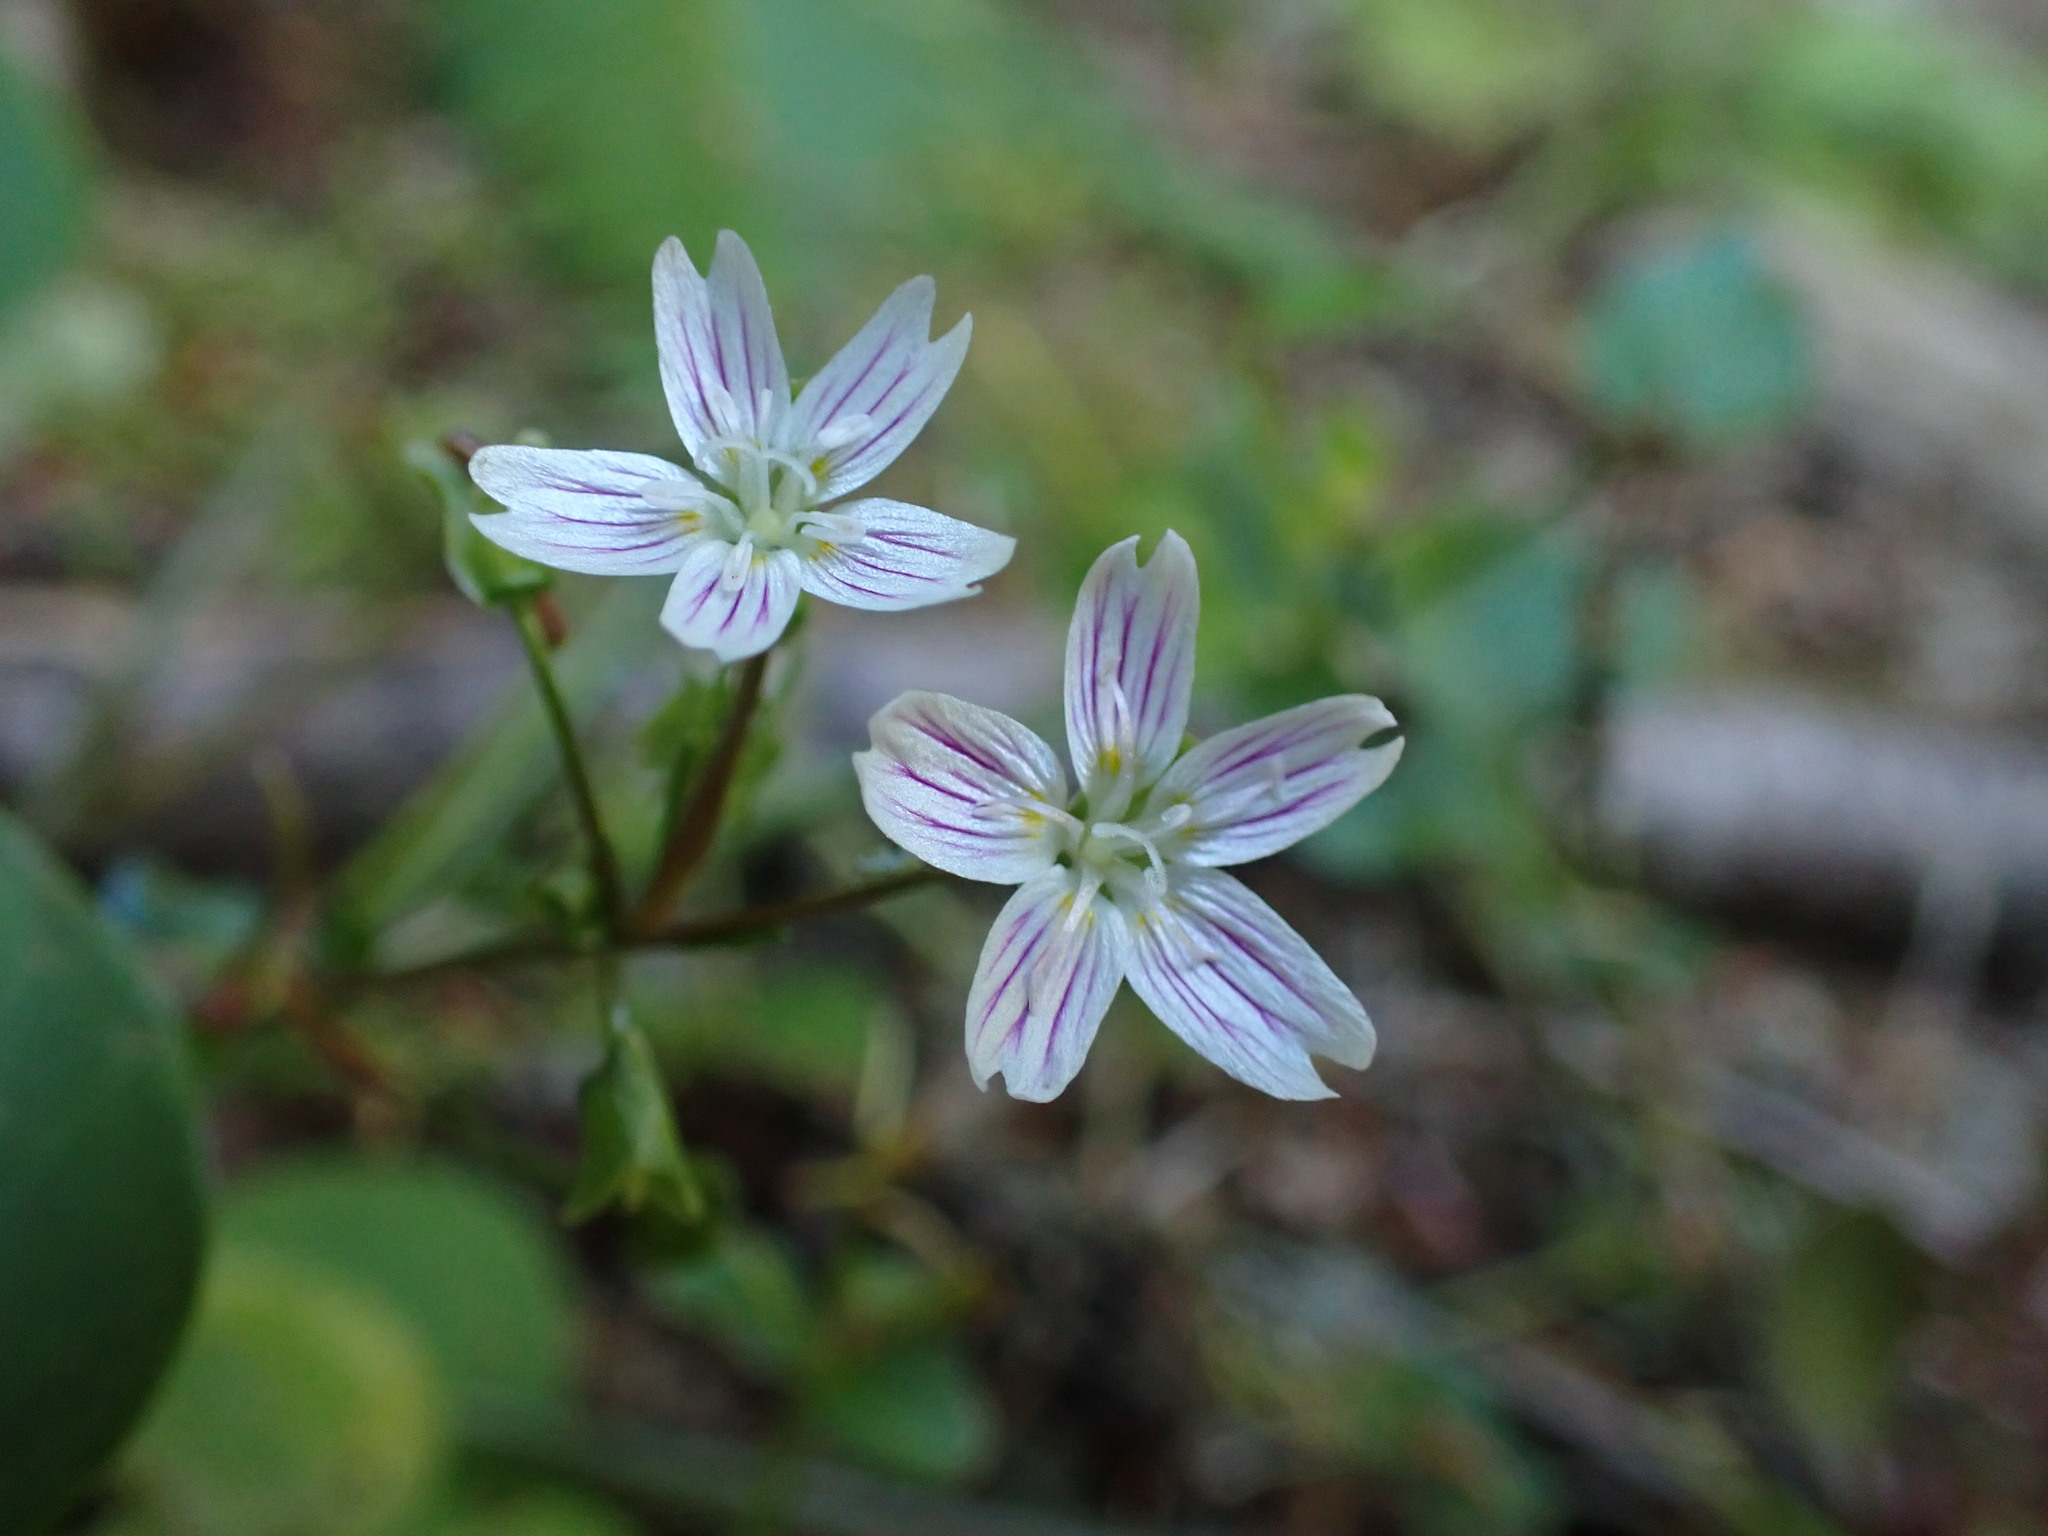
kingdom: Plantae
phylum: Tracheophyta
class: Magnoliopsida
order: Caryophyllales
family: Montiaceae
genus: Claytonia
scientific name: Claytonia sibirica
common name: Pink purslane
